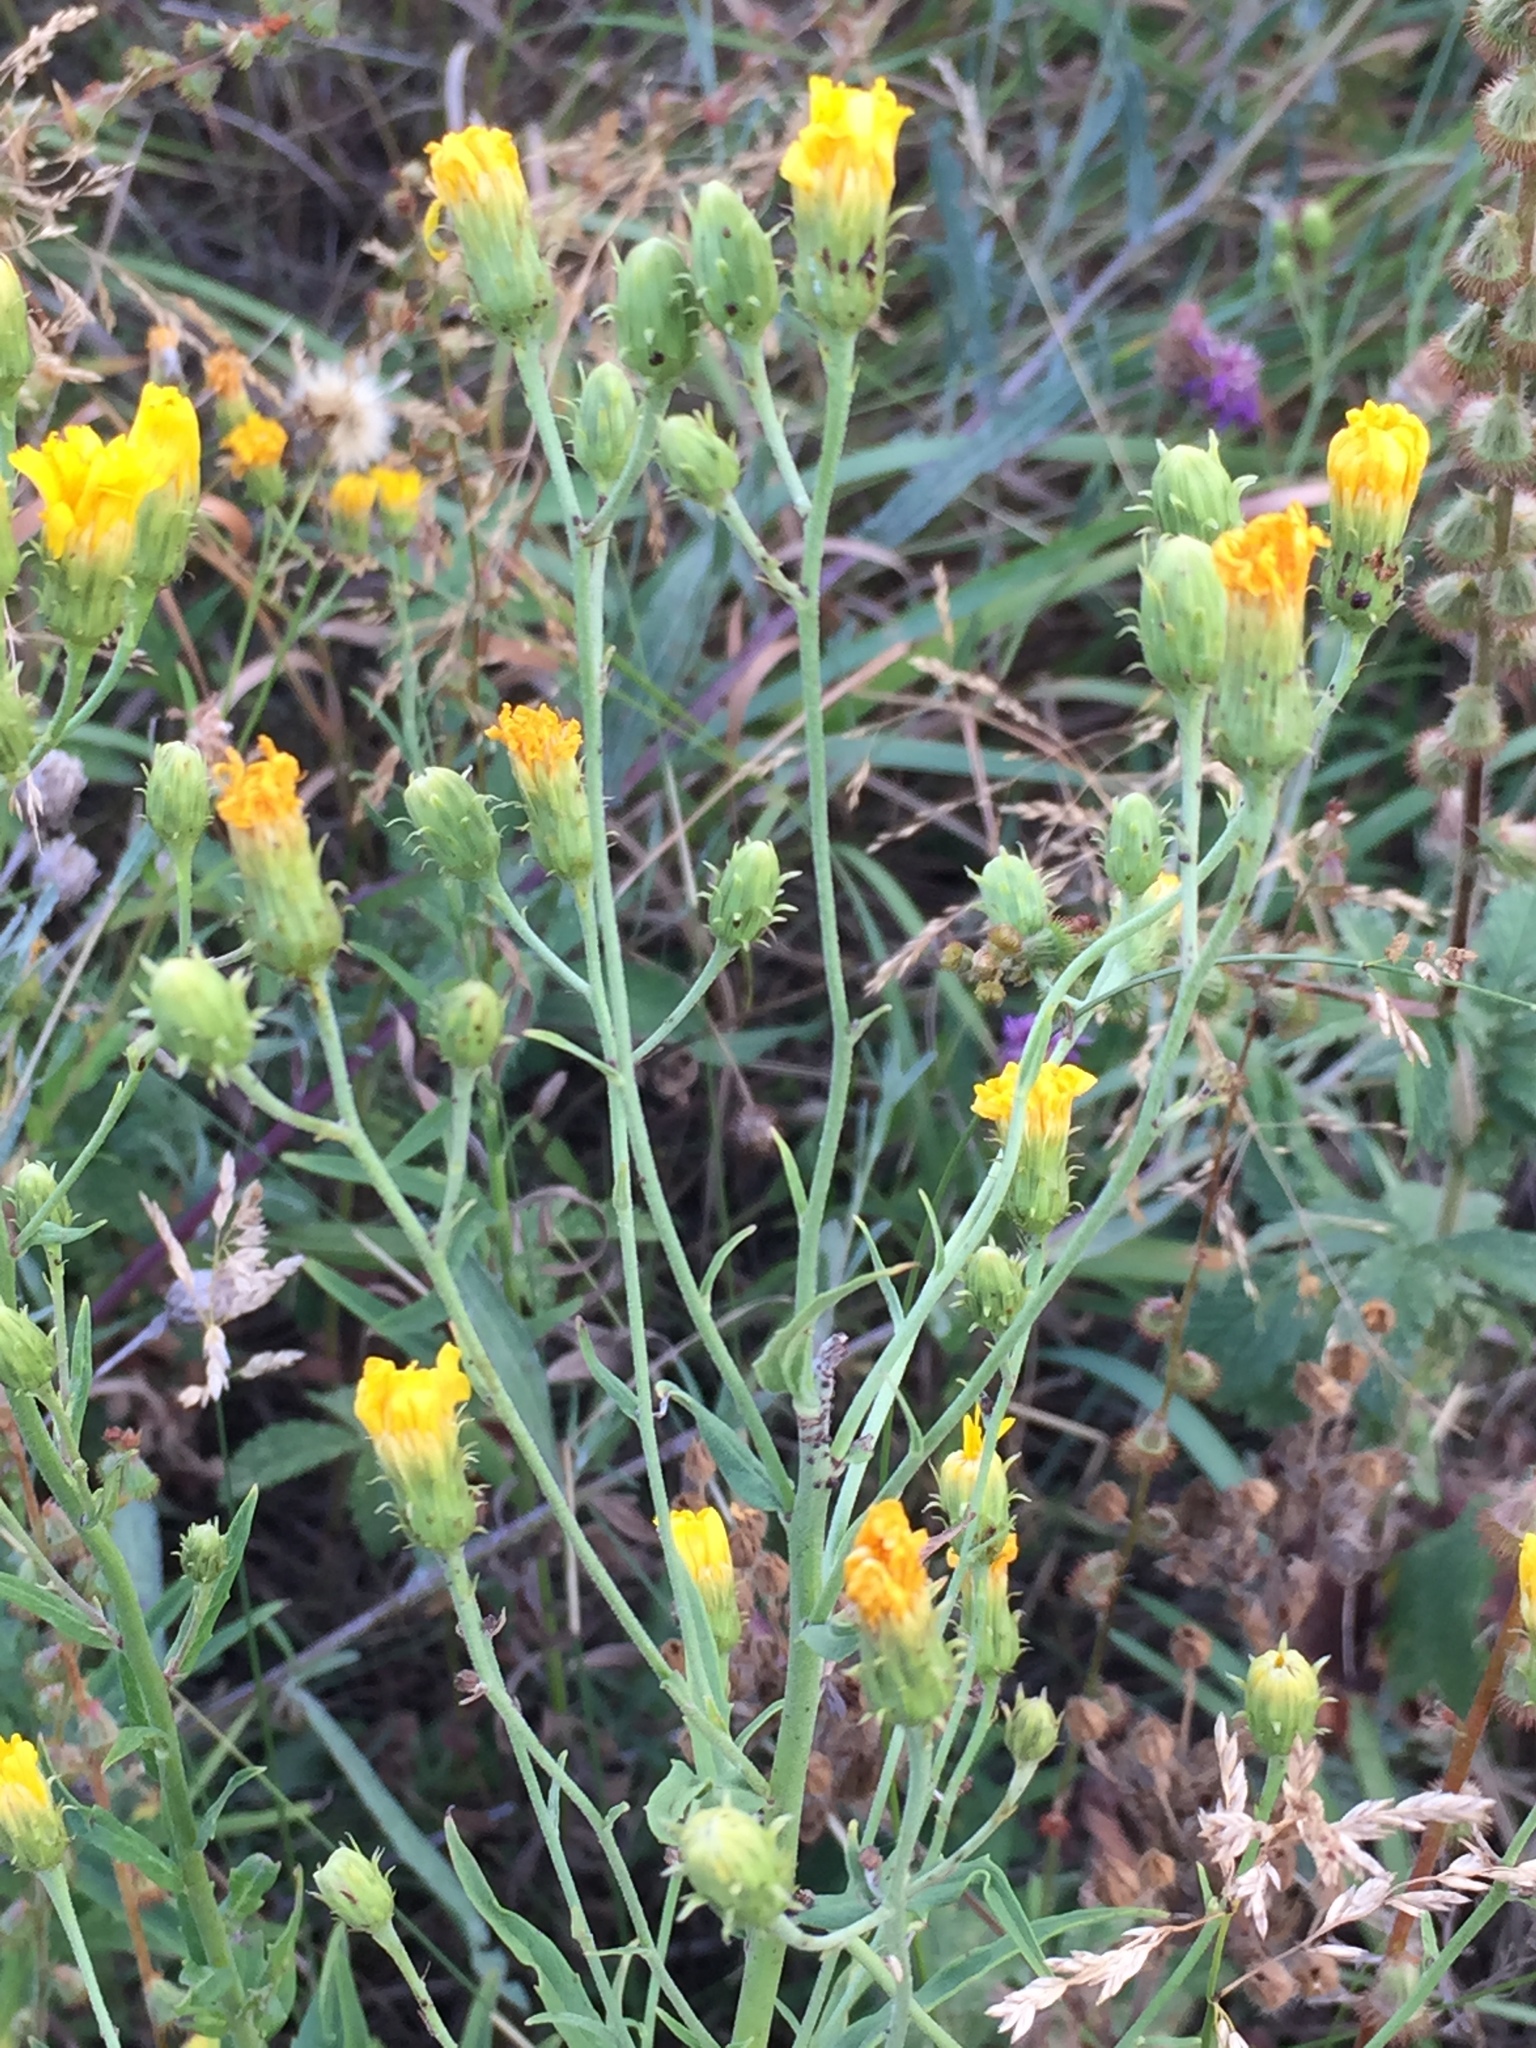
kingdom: Plantae
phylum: Tracheophyta
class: Magnoliopsida
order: Asterales
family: Asteraceae
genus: Hieracium
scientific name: Hieracium umbellatum
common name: Northern hawkweed
